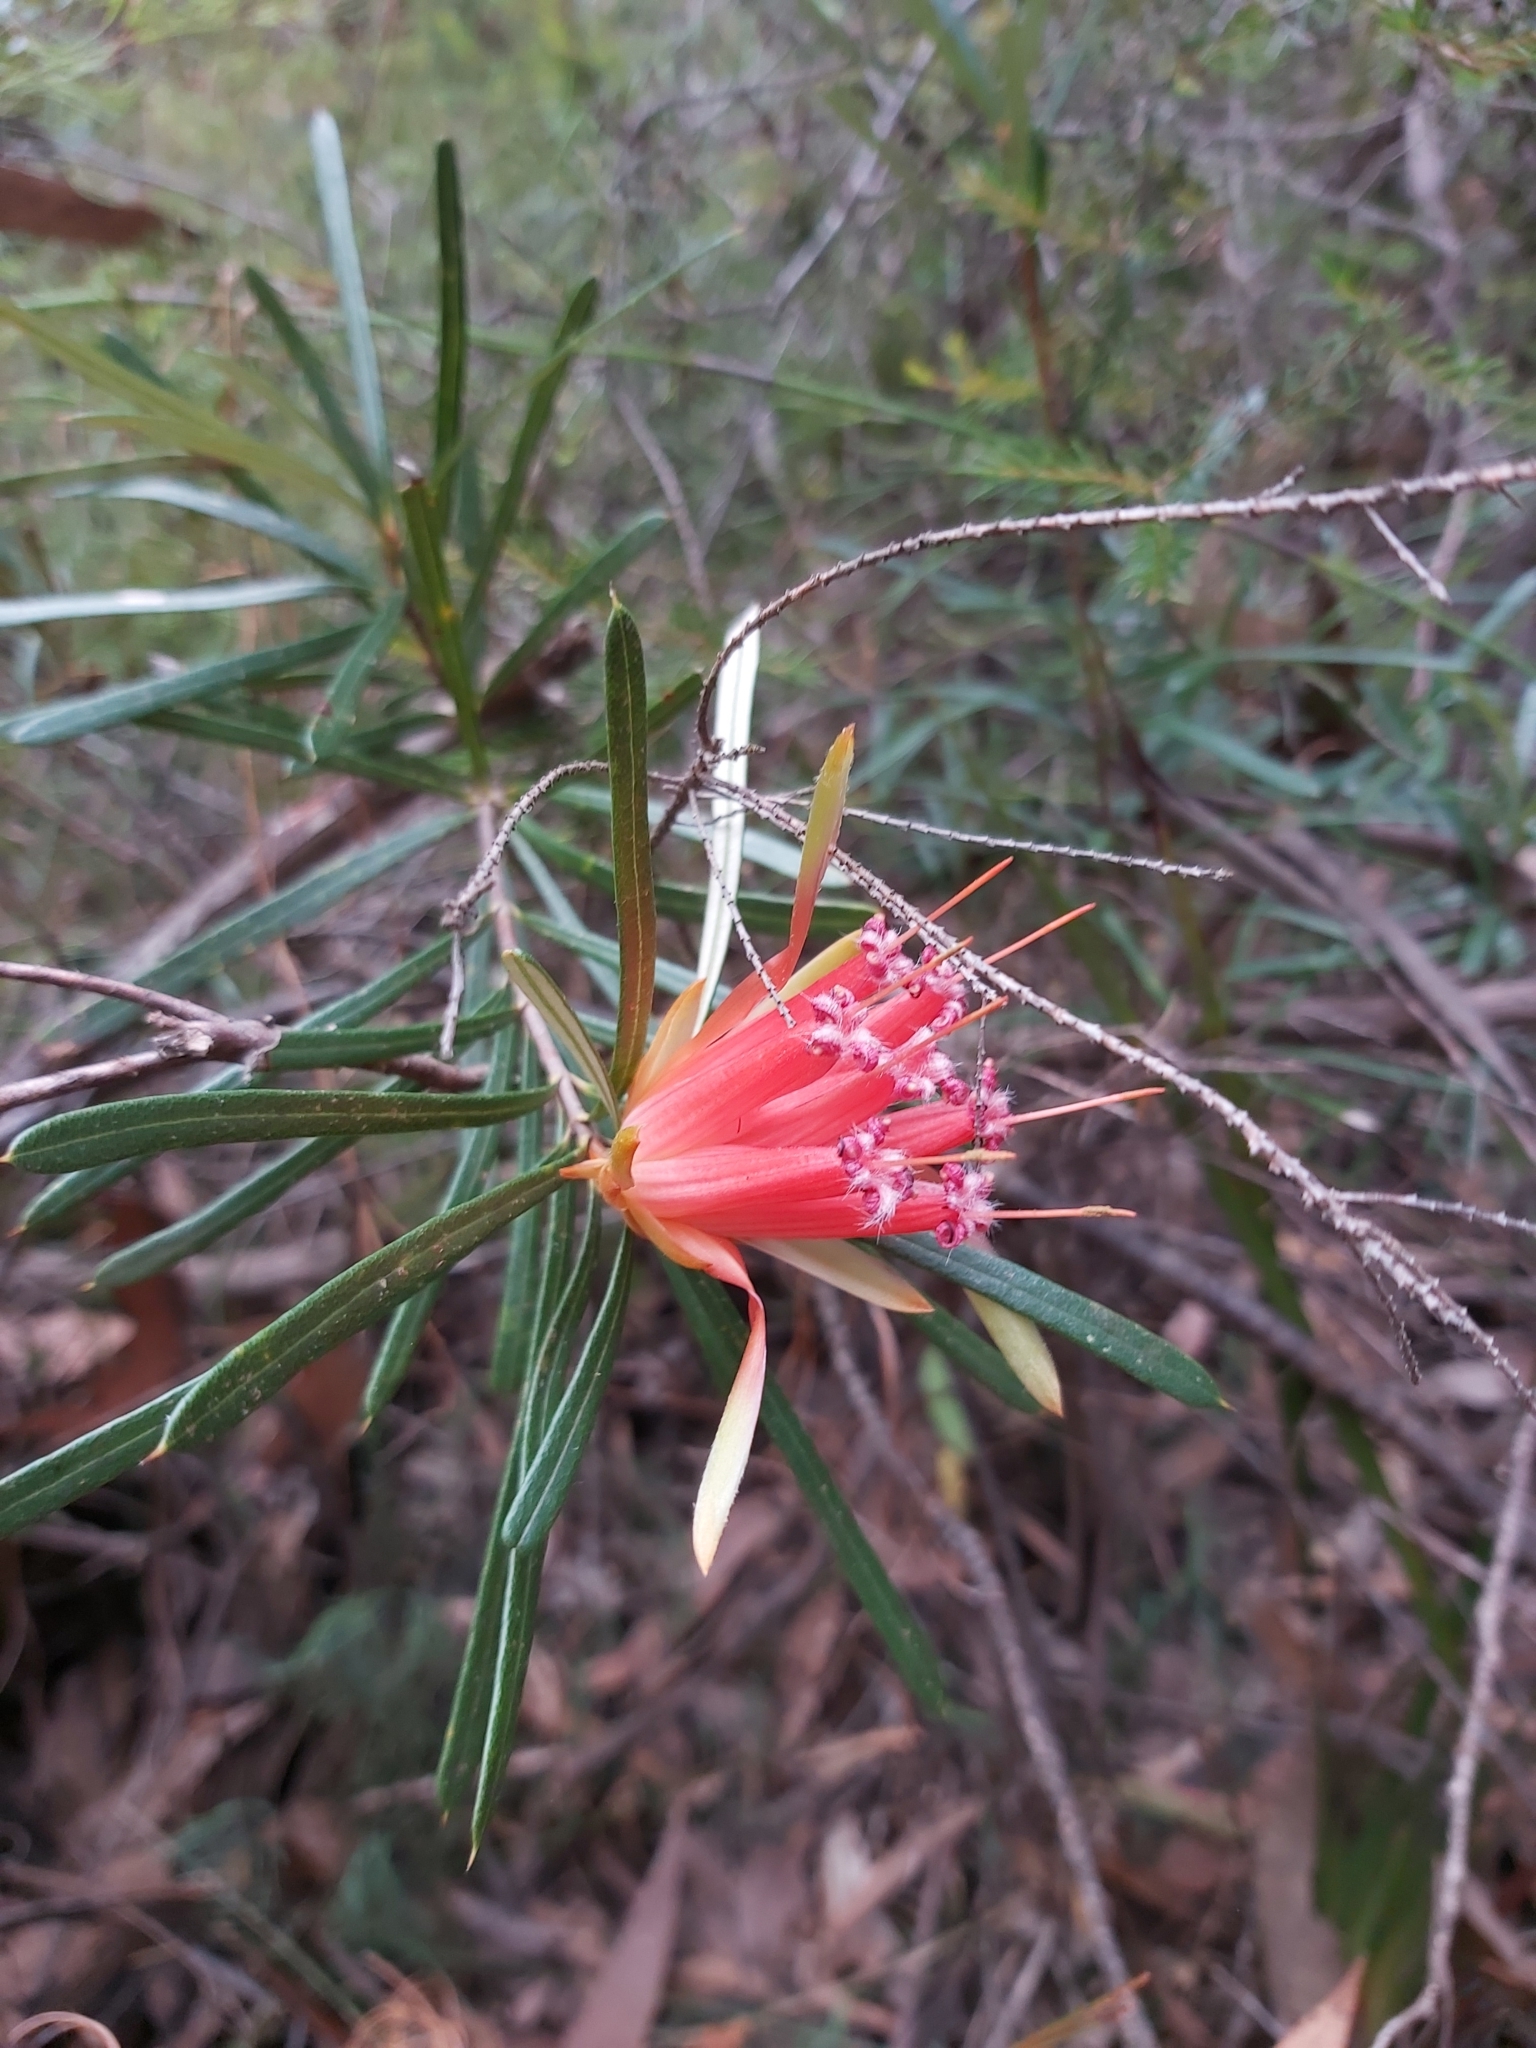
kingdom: Plantae
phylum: Tracheophyta
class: Magnoliopsida
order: Proteales
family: Proteaceae
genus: Lambertia
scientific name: Lambertia formosa
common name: Mountain-devil
